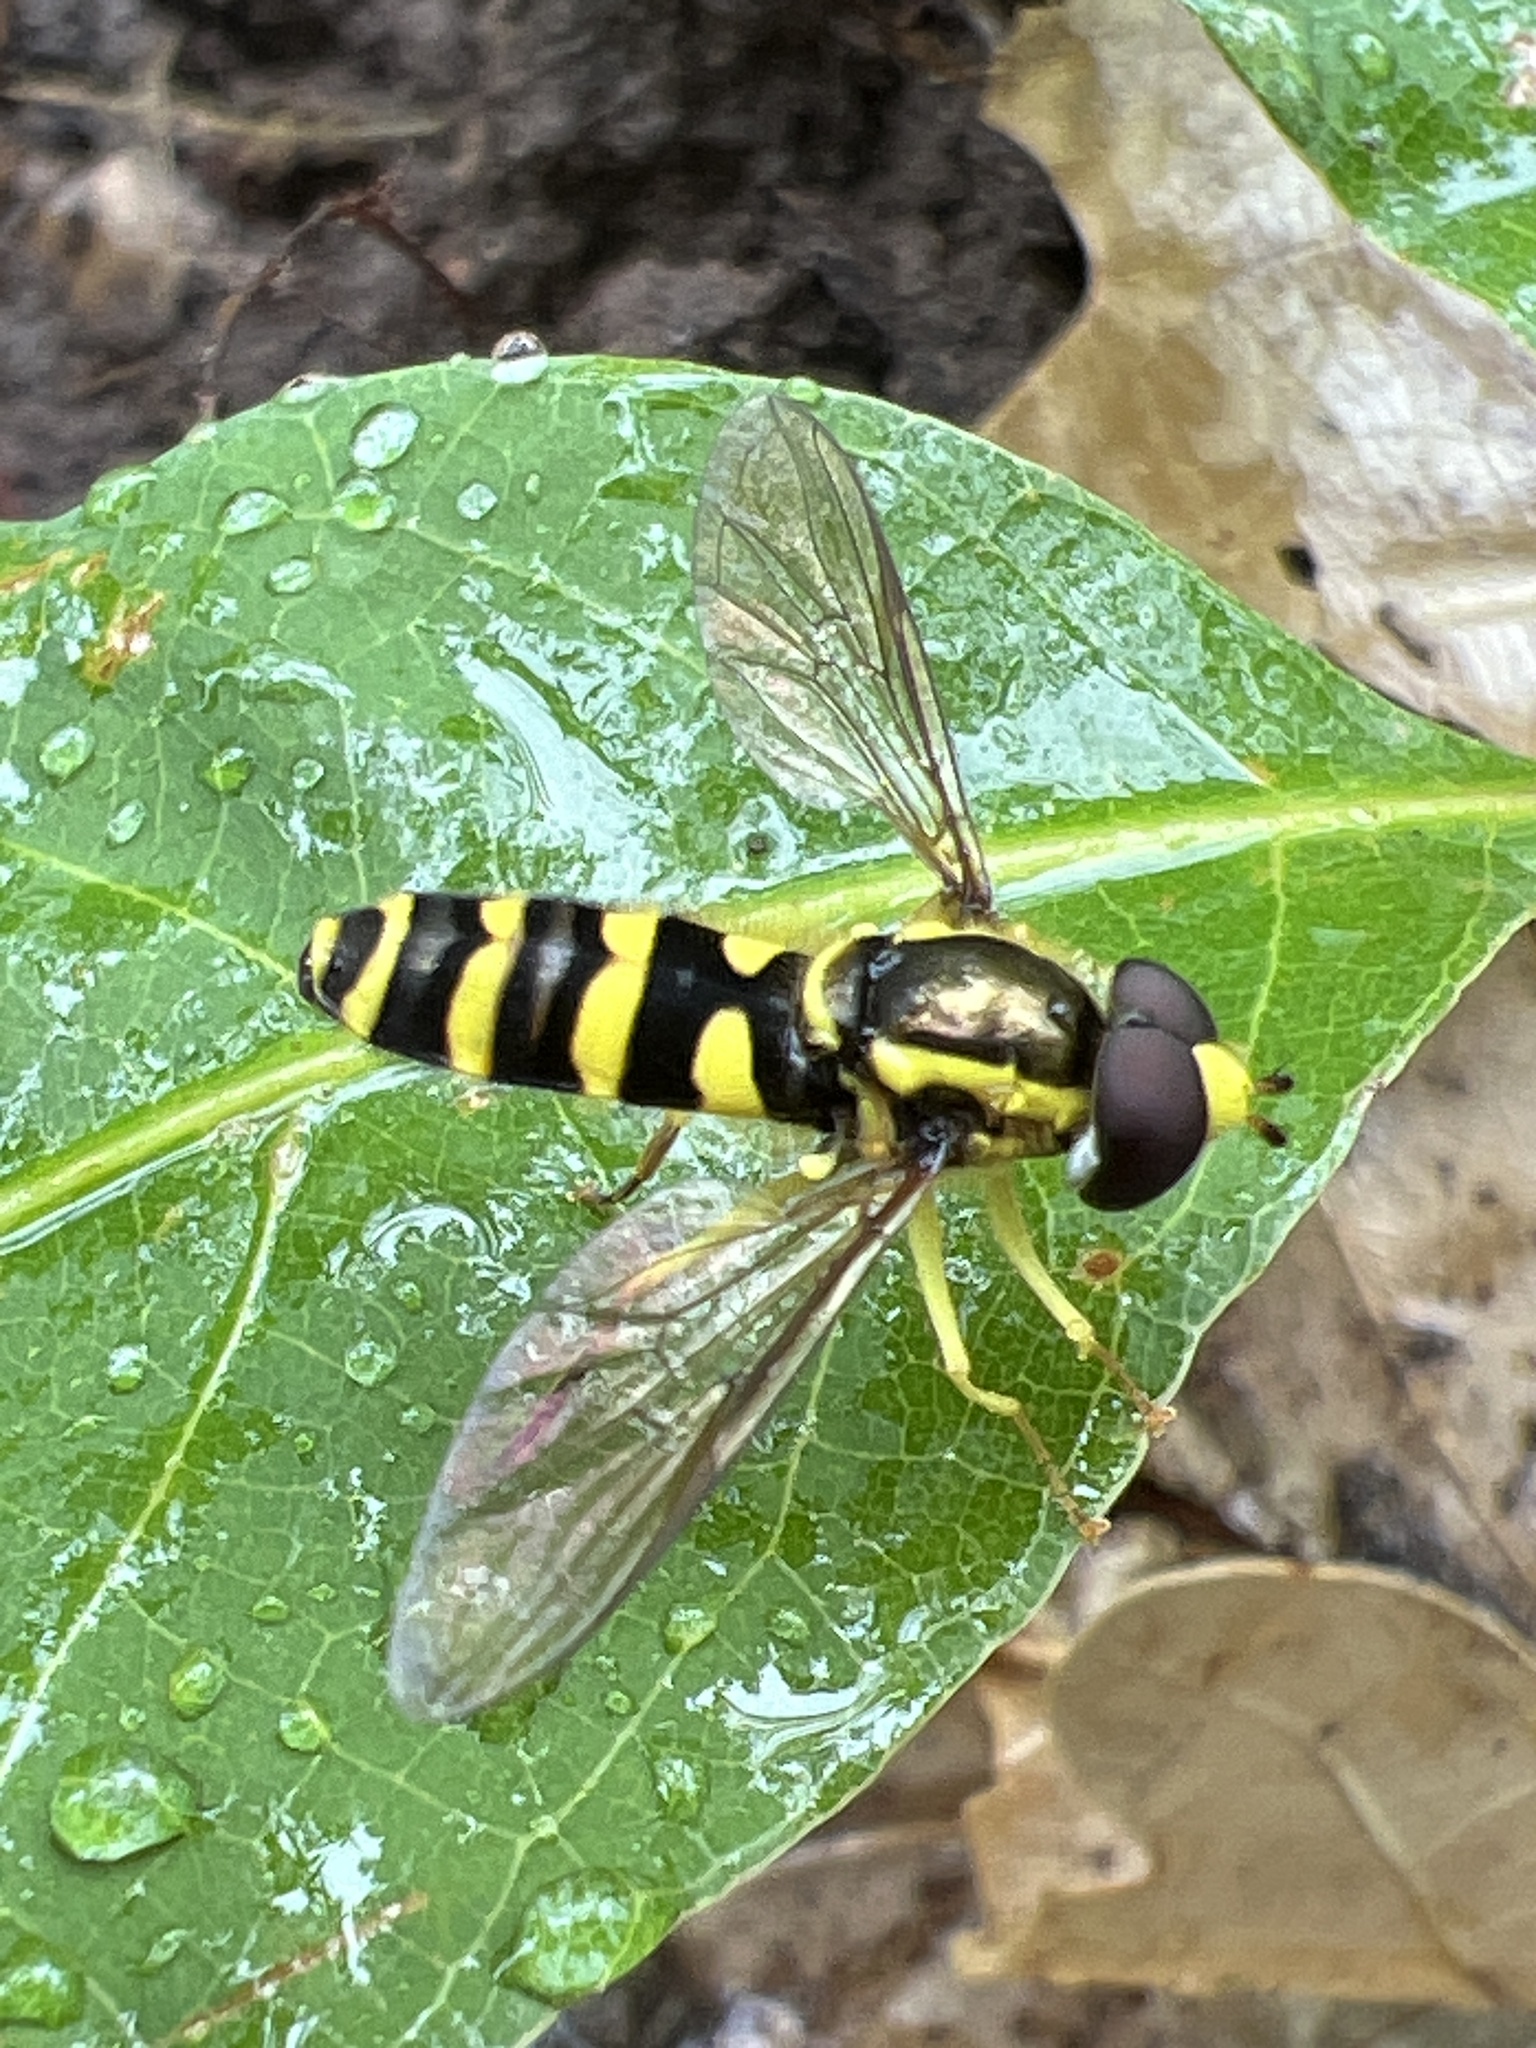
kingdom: Animalia
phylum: Arthropoda
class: Insecta
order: Diptera
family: Syrphidae
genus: Philhelius
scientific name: Philhelius flavipes
